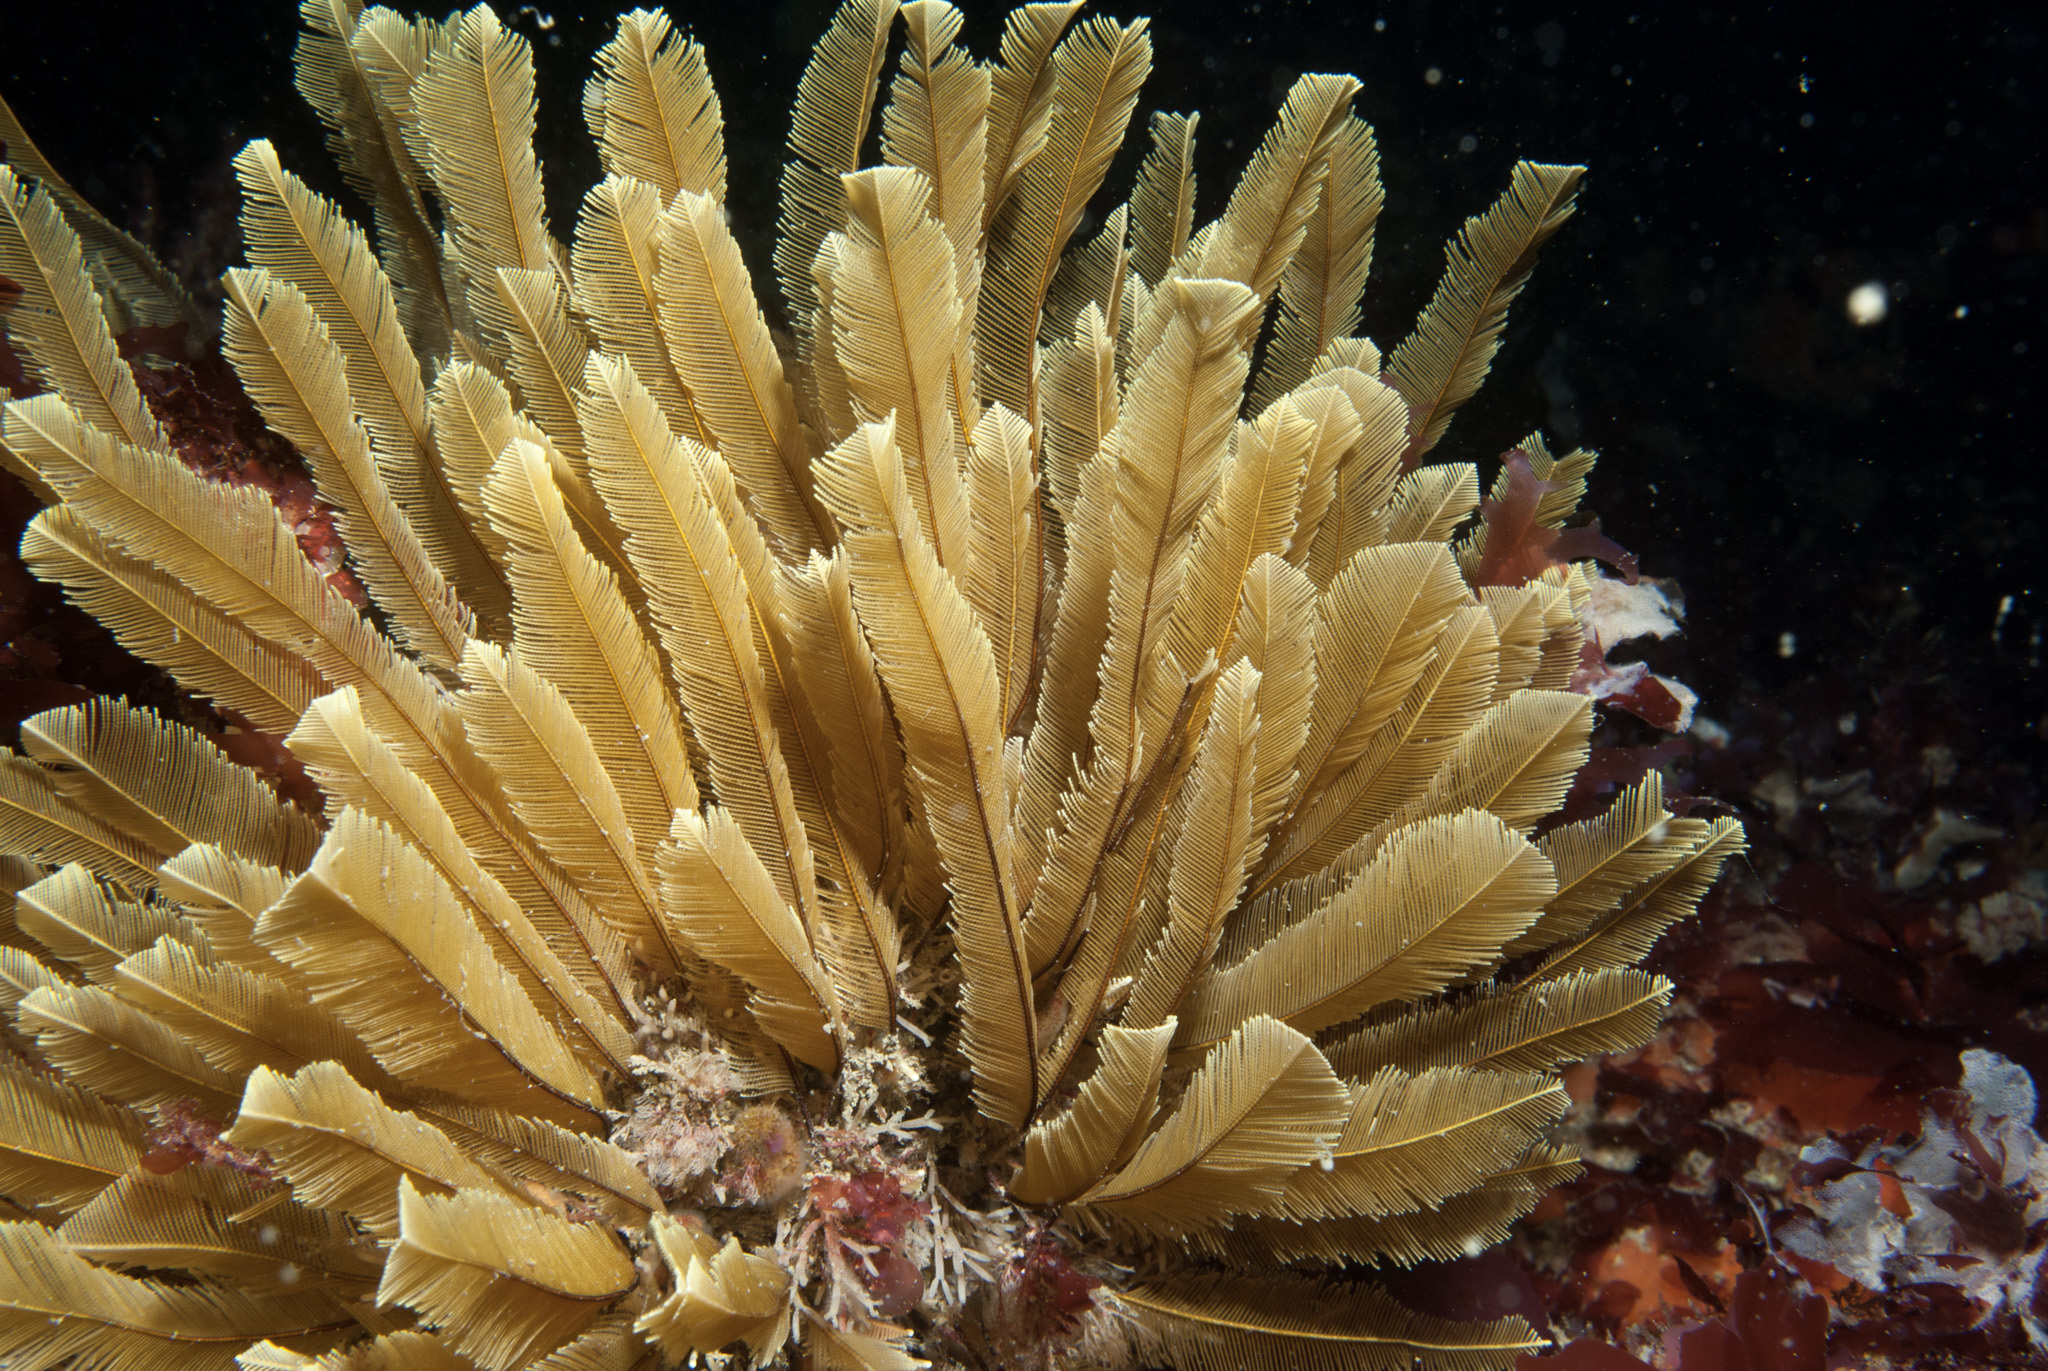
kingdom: Animalia
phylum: Cnidaria
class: Hydrozoa
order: Leptothecata
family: Aglaopheniidae
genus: Gymnangium
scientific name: Gymnangium montagui
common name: Yellow feathers
